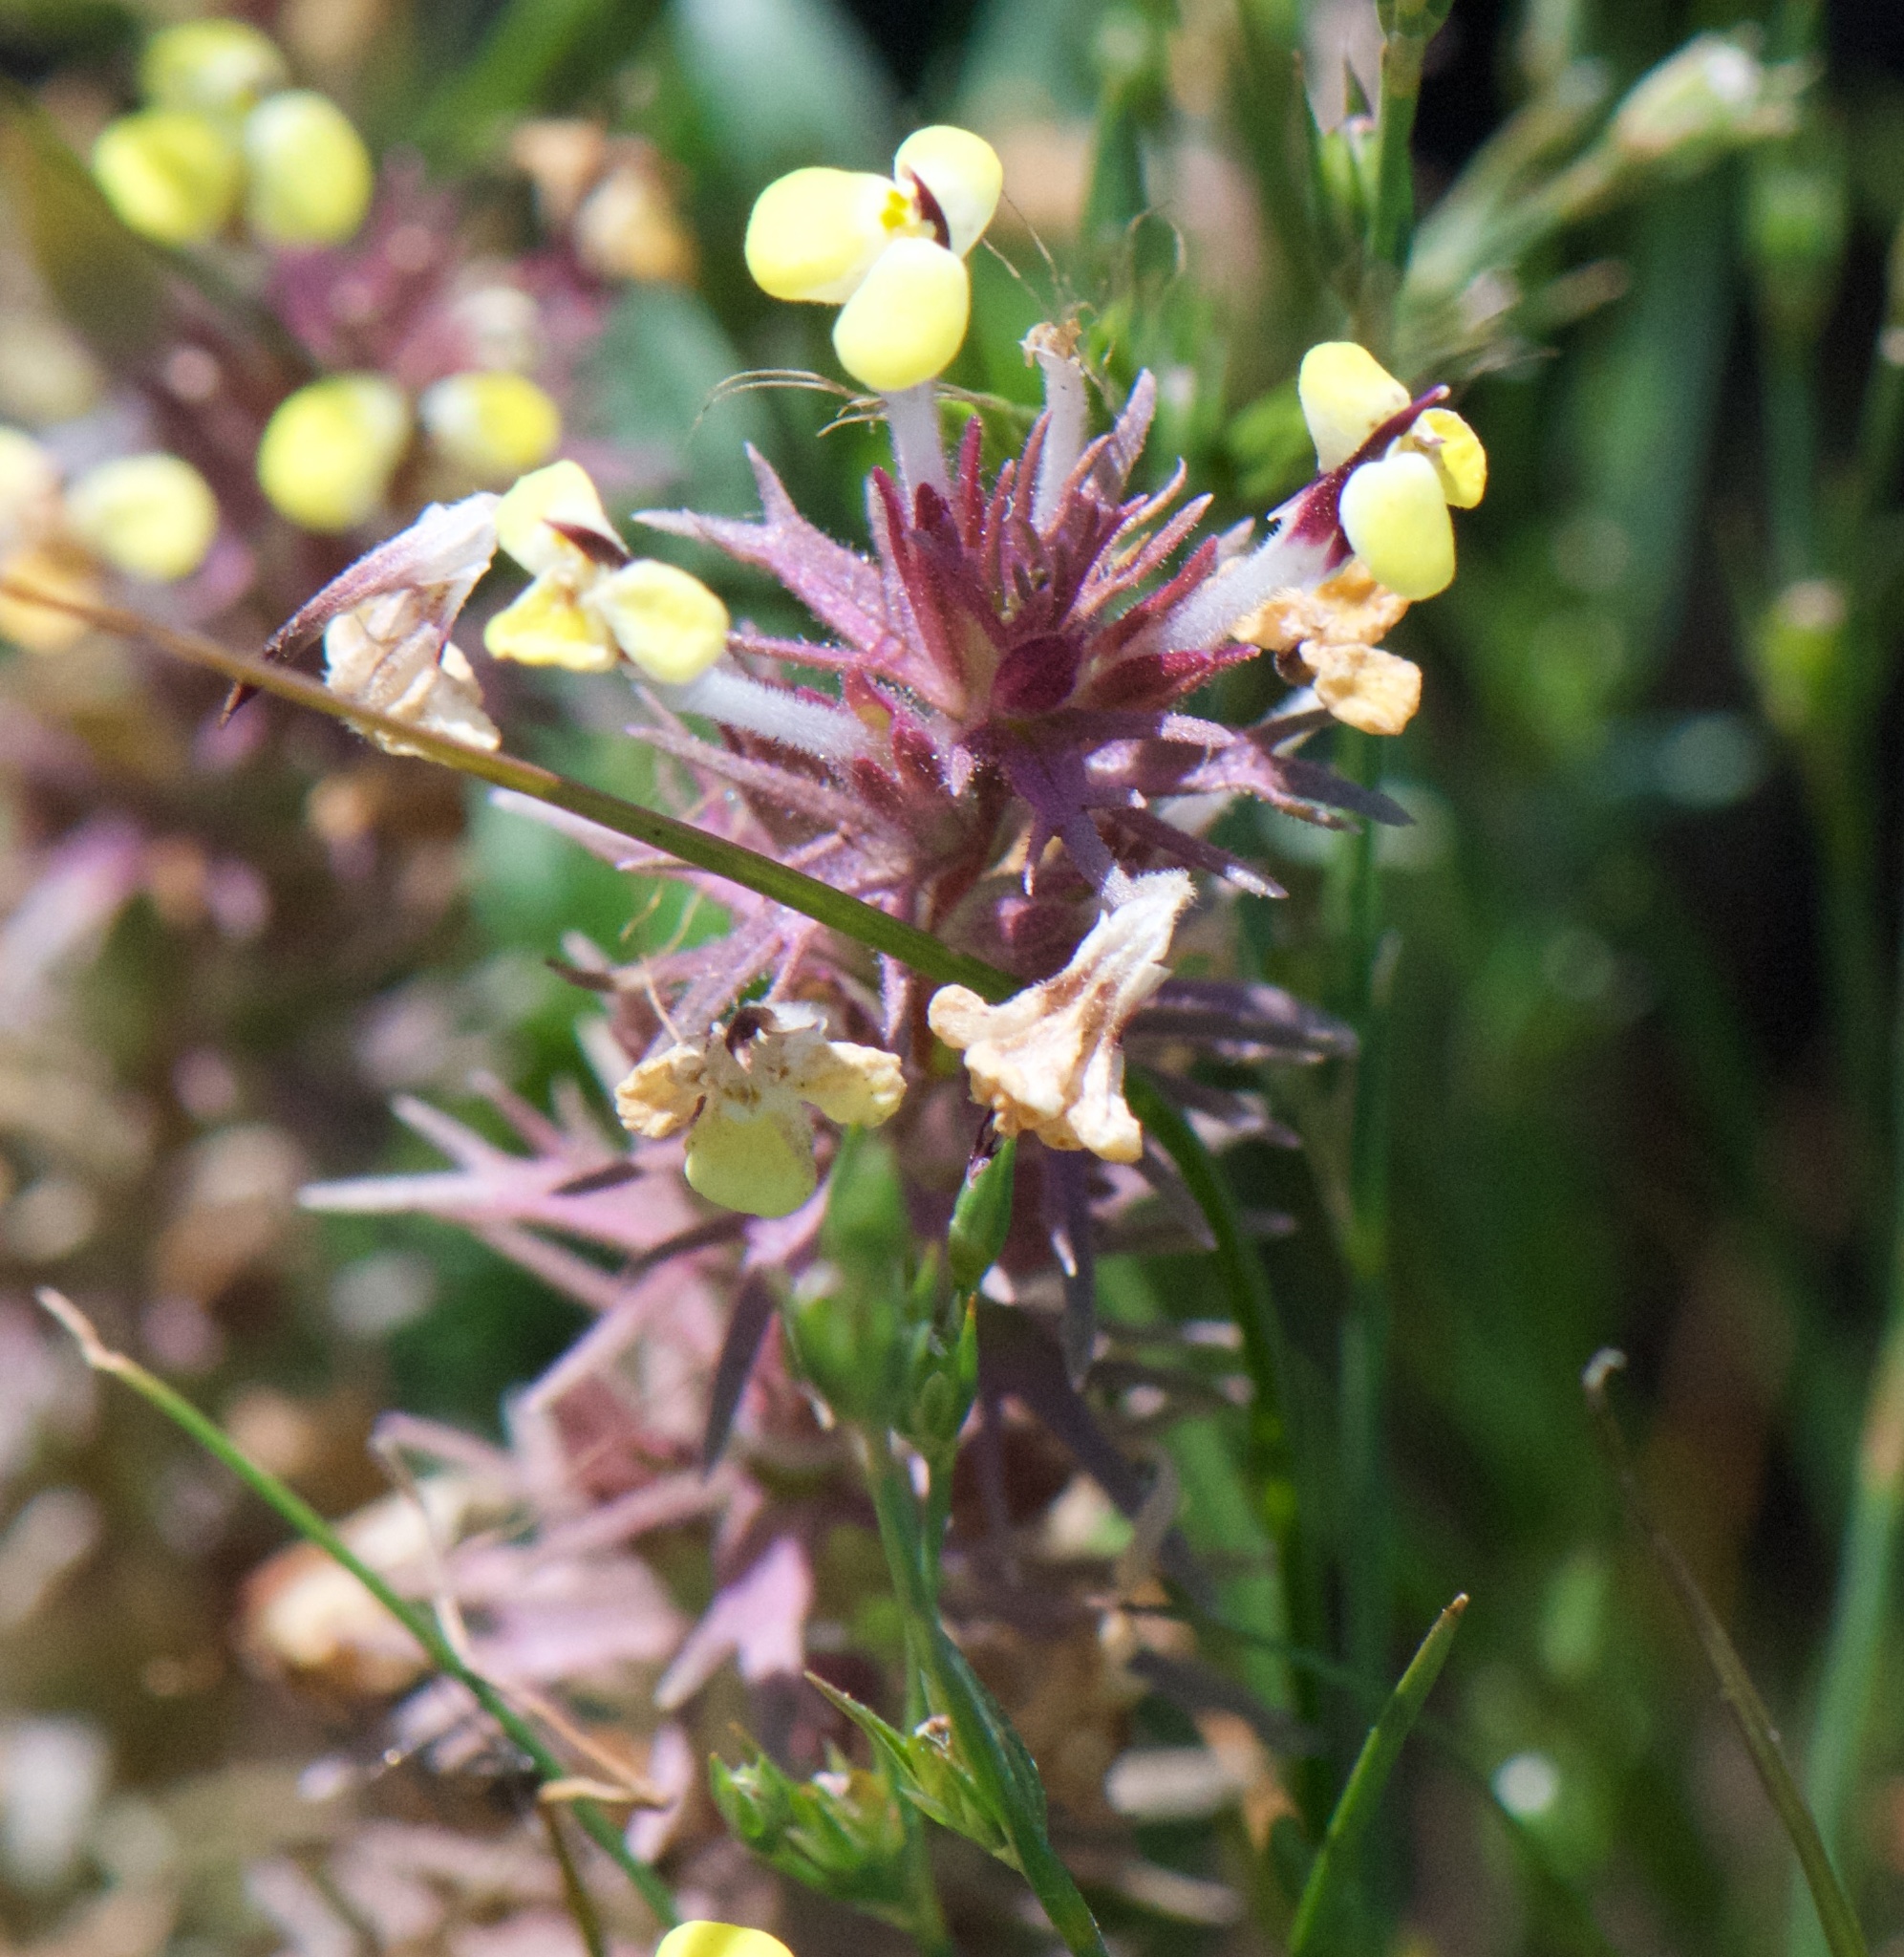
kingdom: Plantae
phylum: Tracheophyta
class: Magnoliopsida
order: Lamiales
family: Orobanchaceae
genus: Triphysaria
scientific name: Triphysaria eriantha
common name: Johnny-tuck
